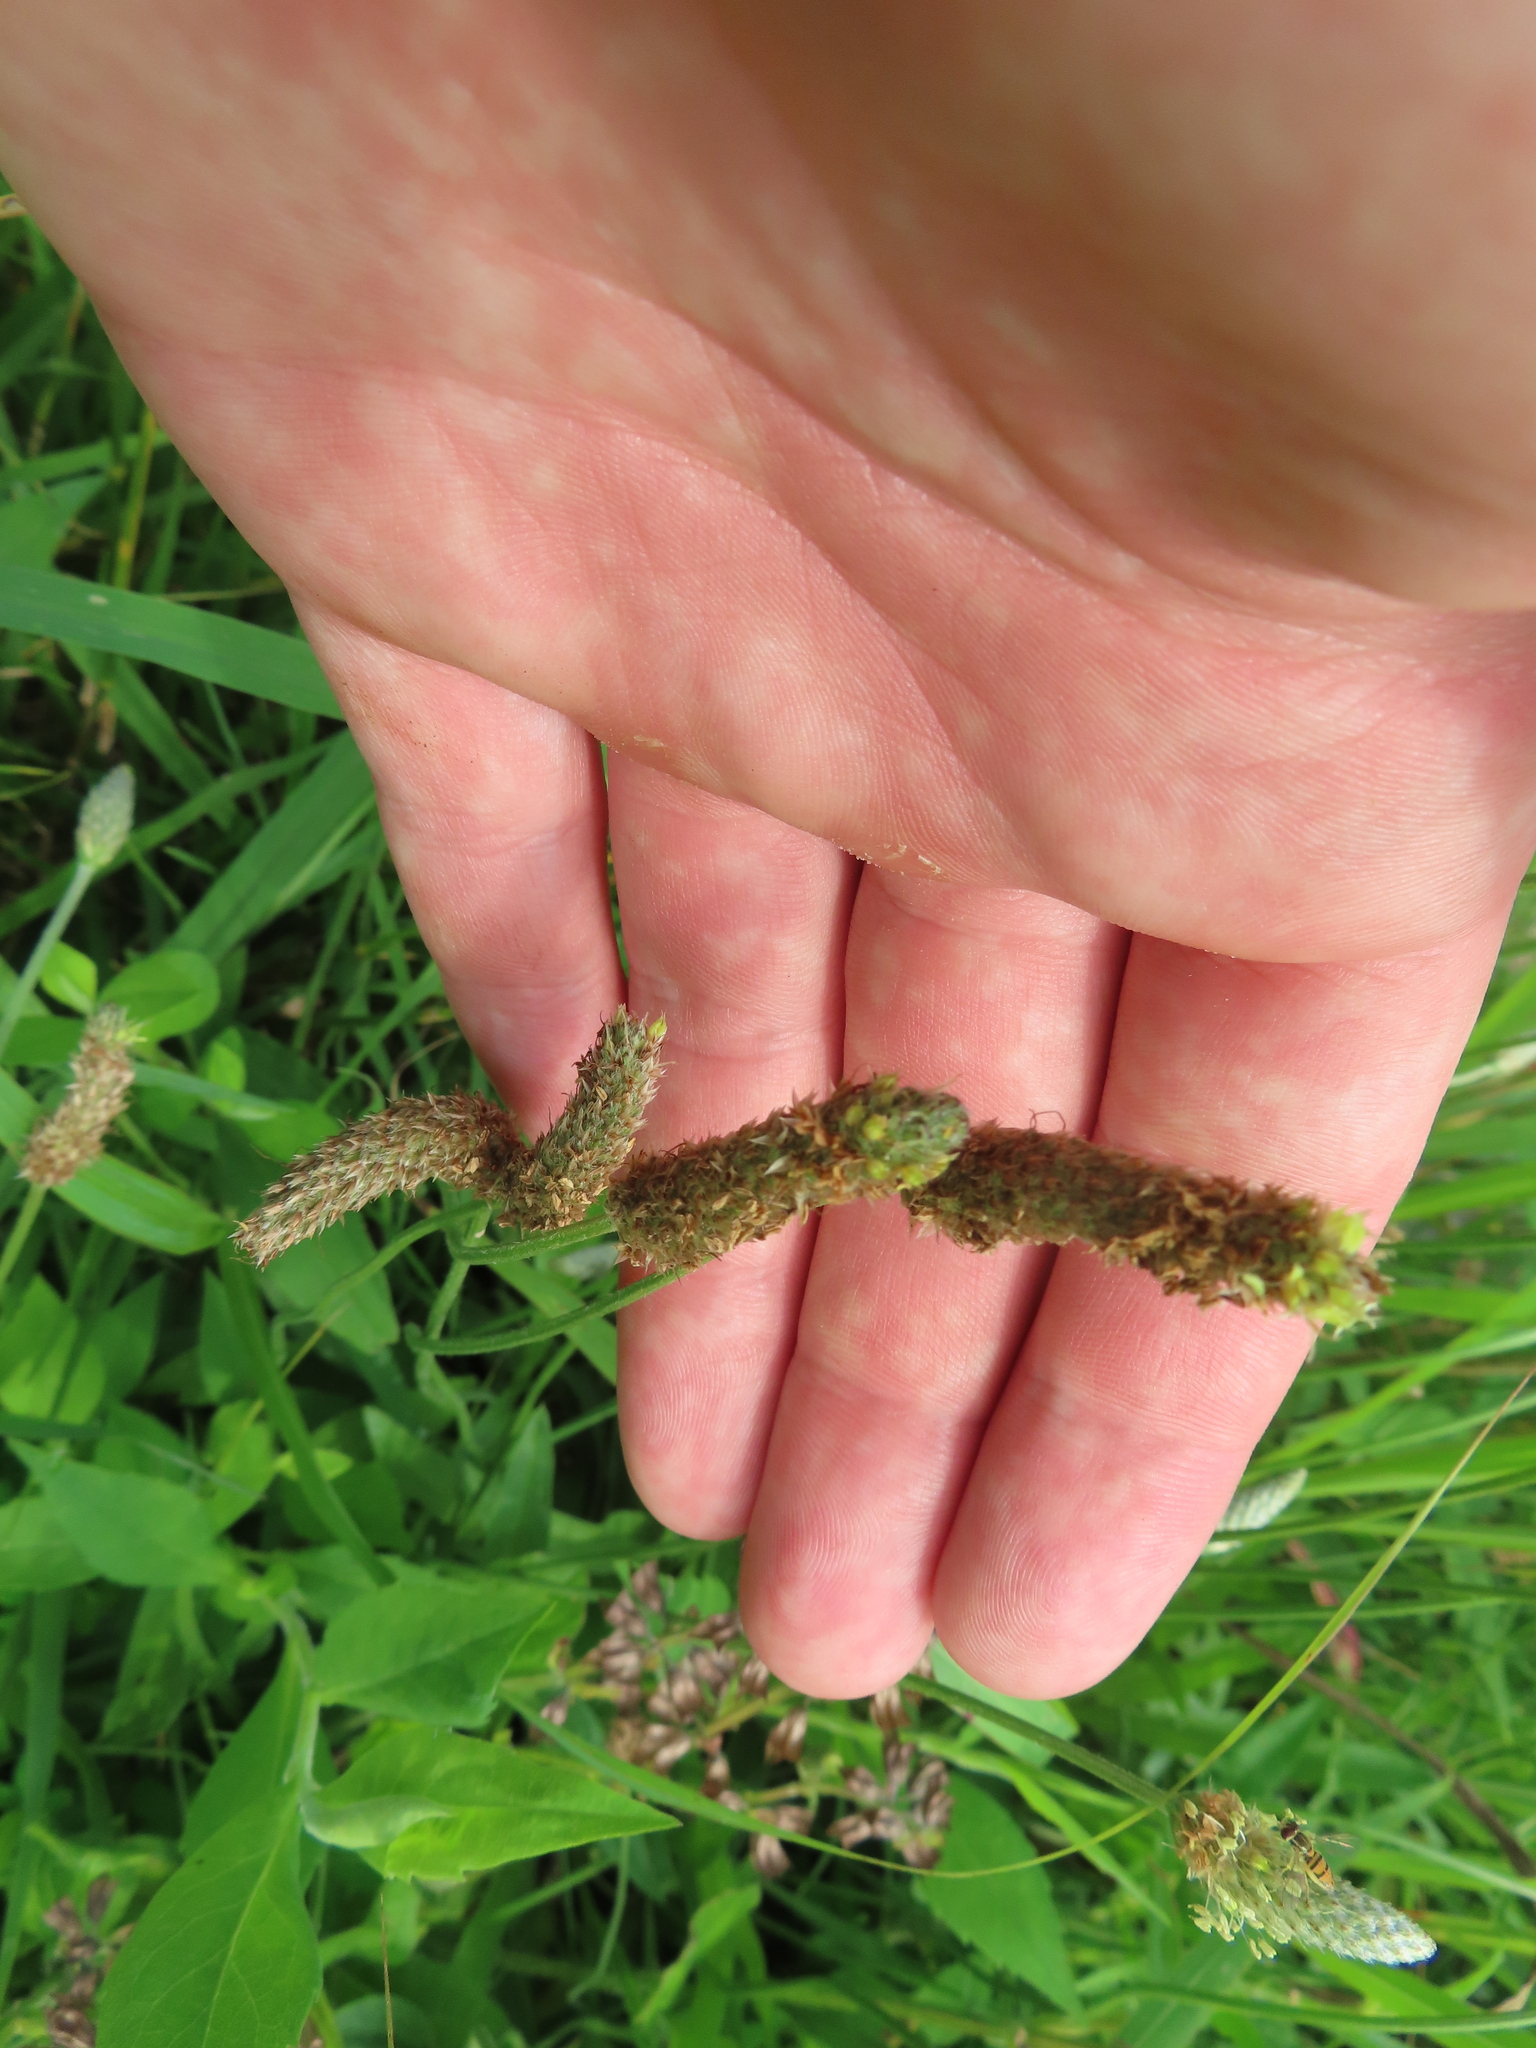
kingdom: Plantae
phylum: Tracheophyta
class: Magnoliopsida
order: Lamiales
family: Plantaginaceae
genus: Plantago
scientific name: Plantago lanceolata
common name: Ribwort plantain
